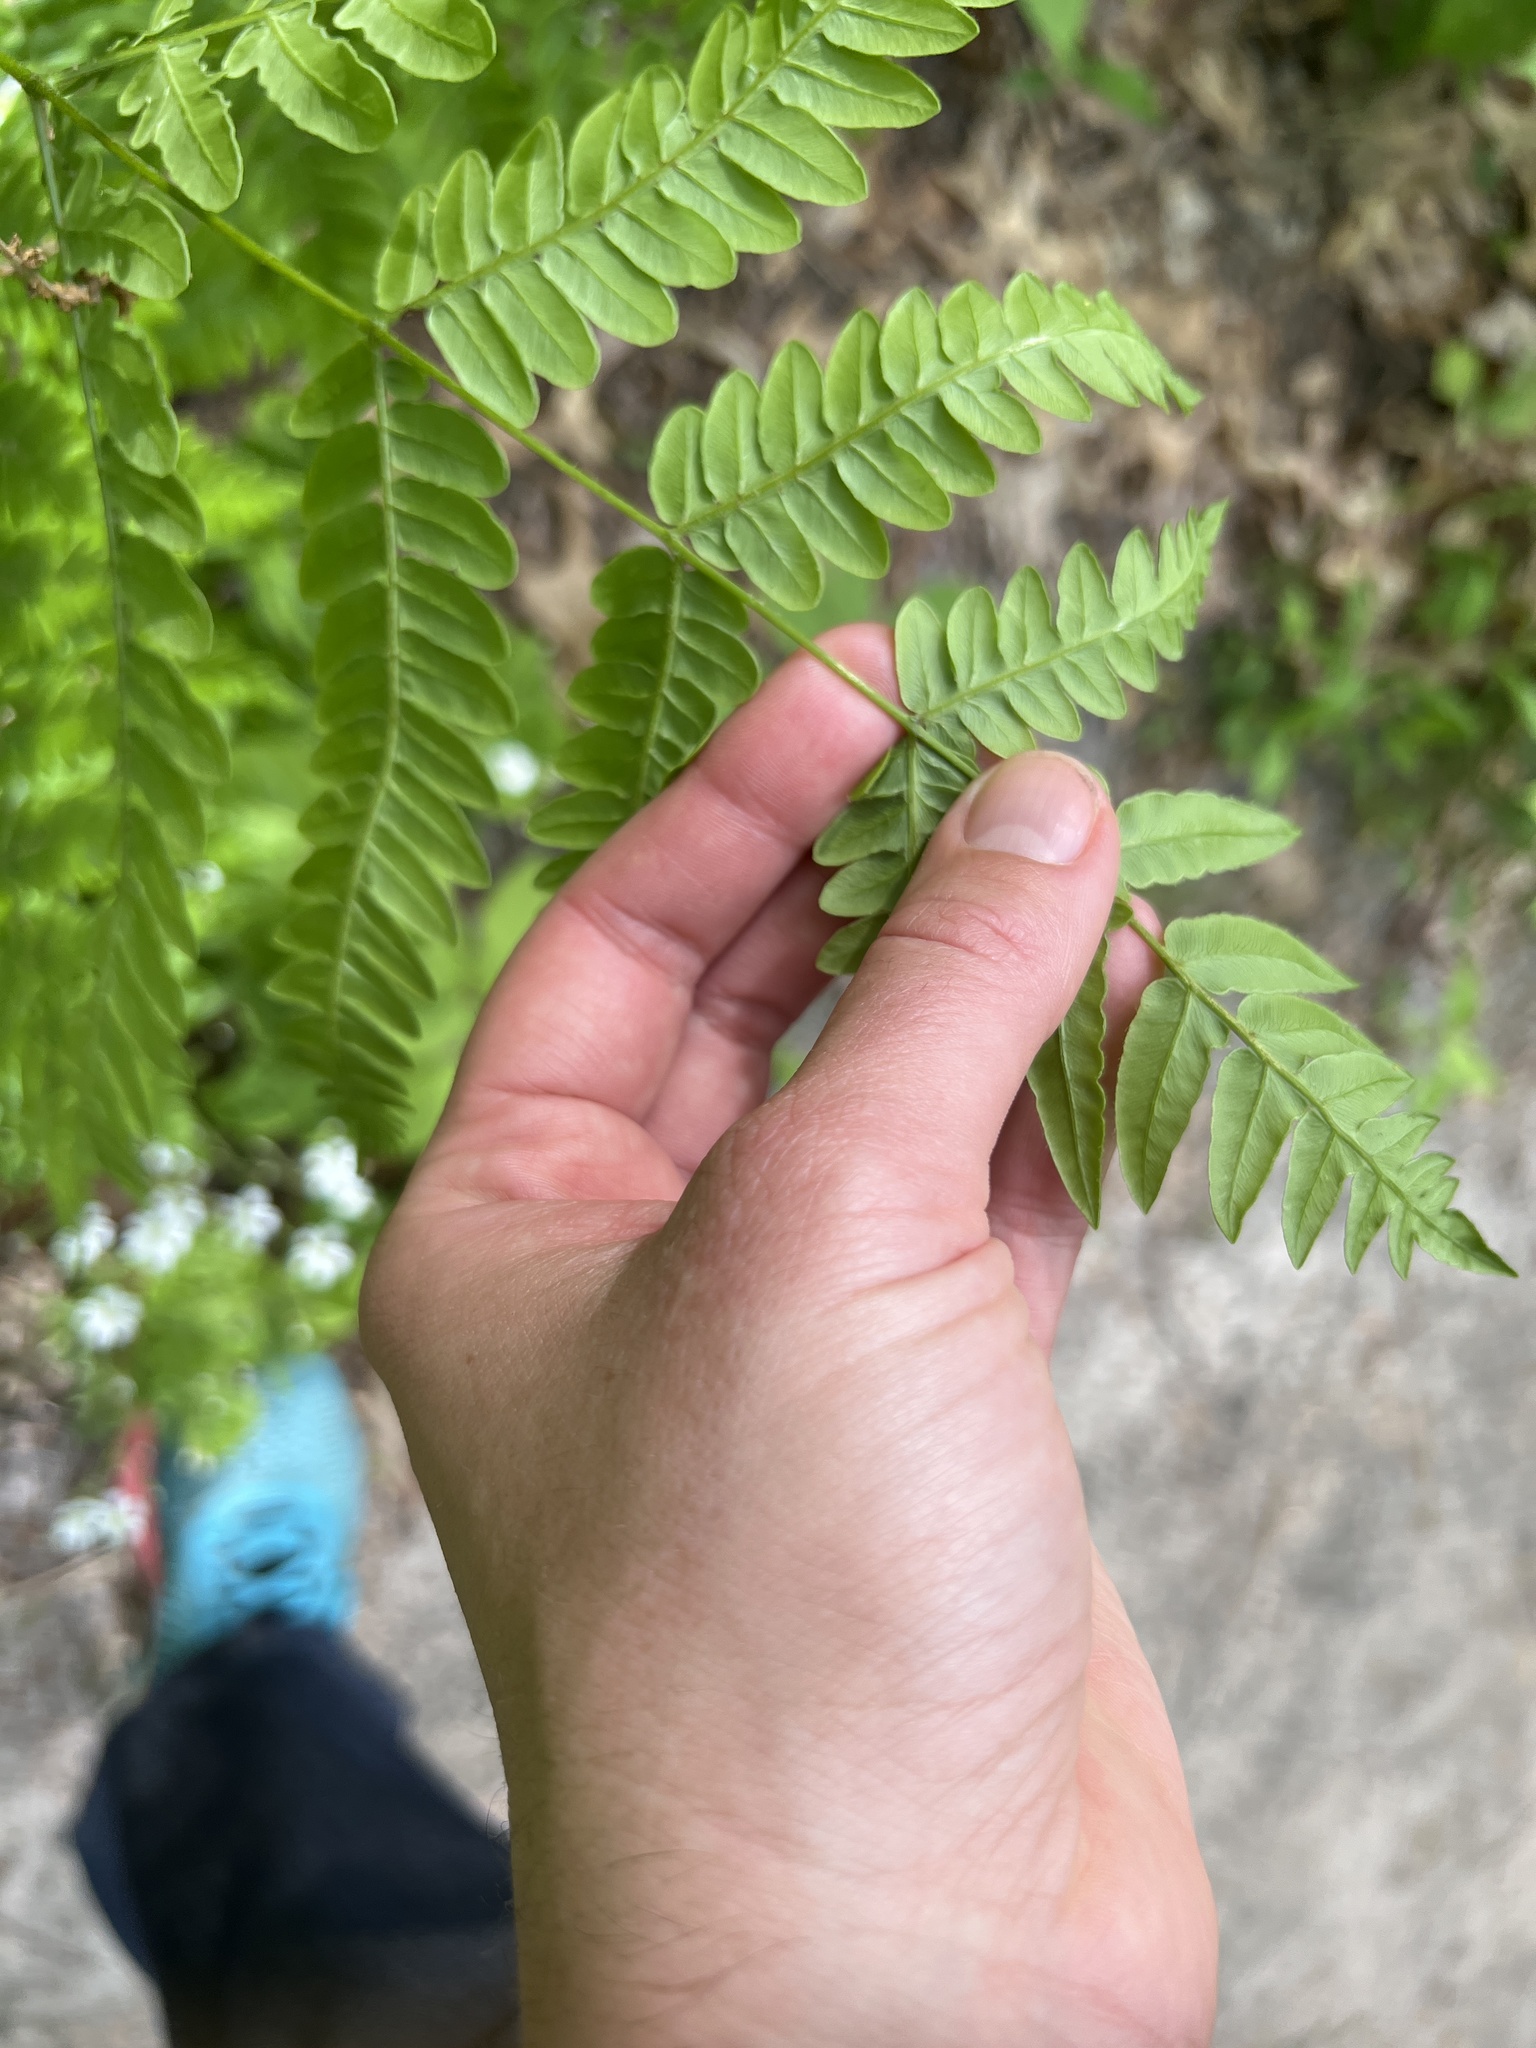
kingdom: Plantae
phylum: Tracheophyta
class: Polypodiopsida
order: Polypodiales
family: Dennstaedtiaceae
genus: Pteridium
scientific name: Pteridium aquilinum
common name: Bracken
